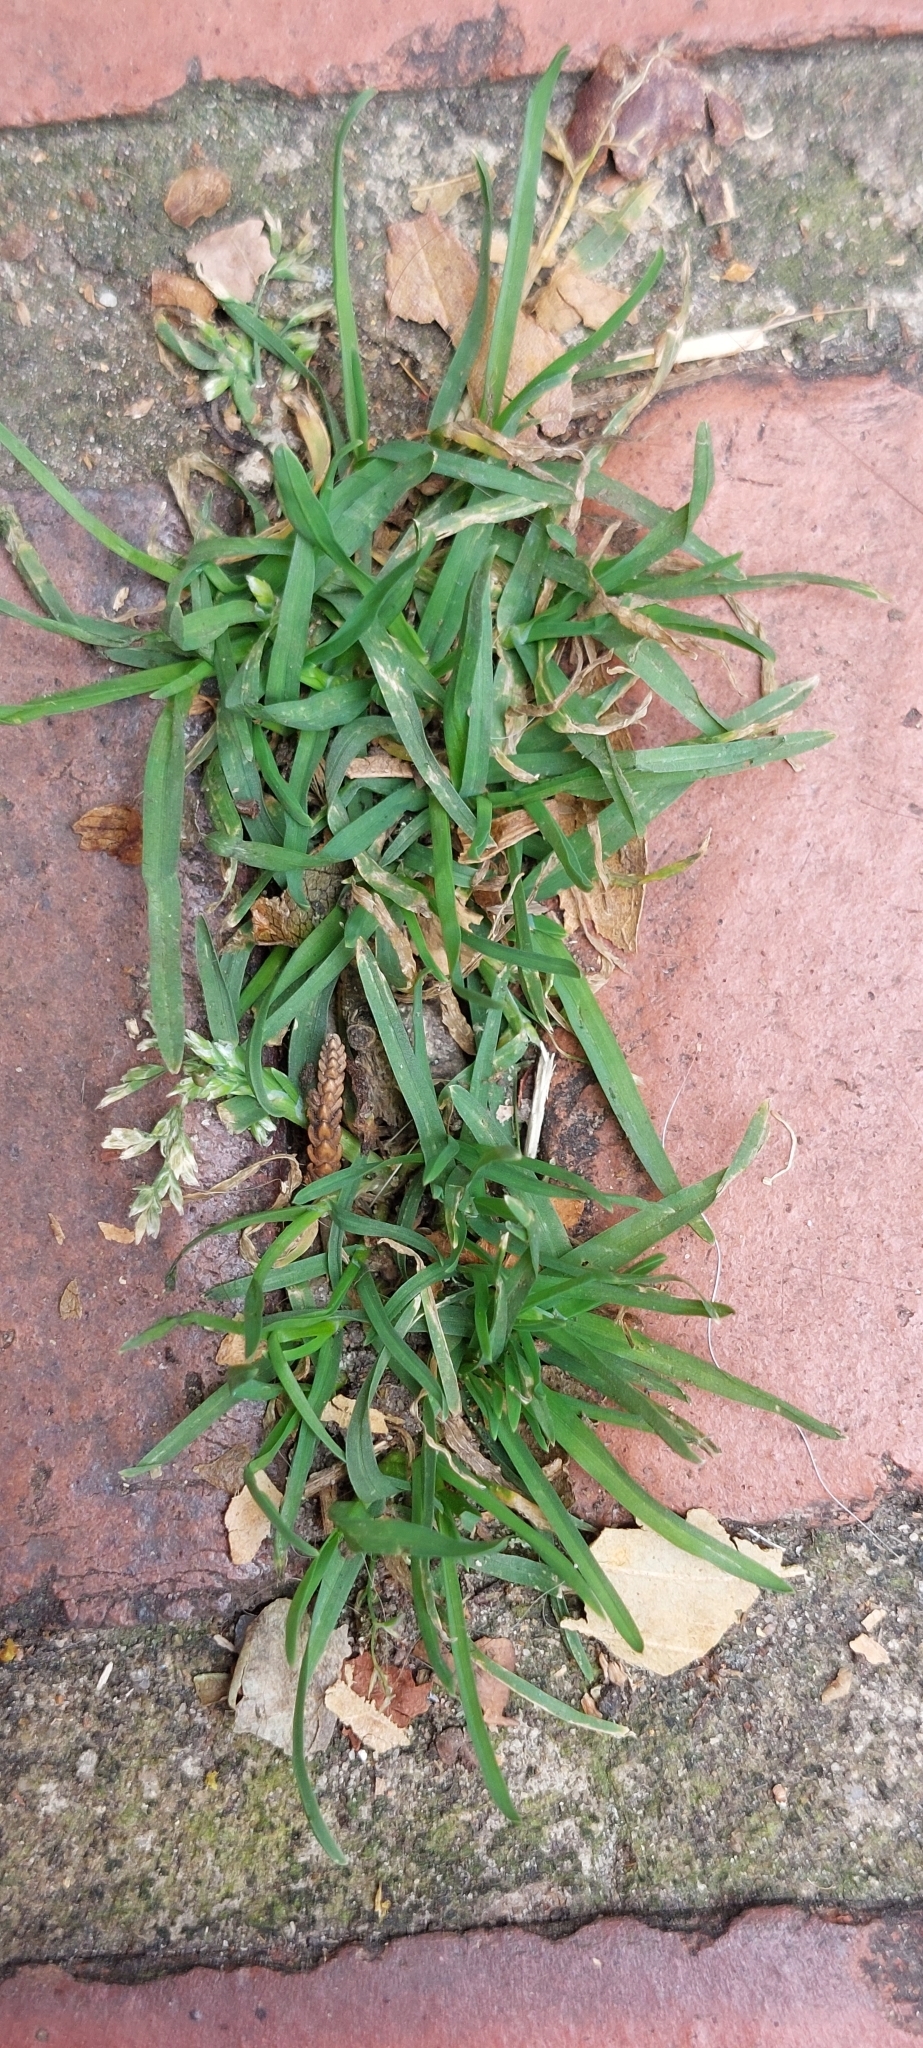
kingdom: Plantae
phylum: Tracheophyta
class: Liliopsida
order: Poales
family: Poaceae
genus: Poa
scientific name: Poa annua
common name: Annual bluegrass
